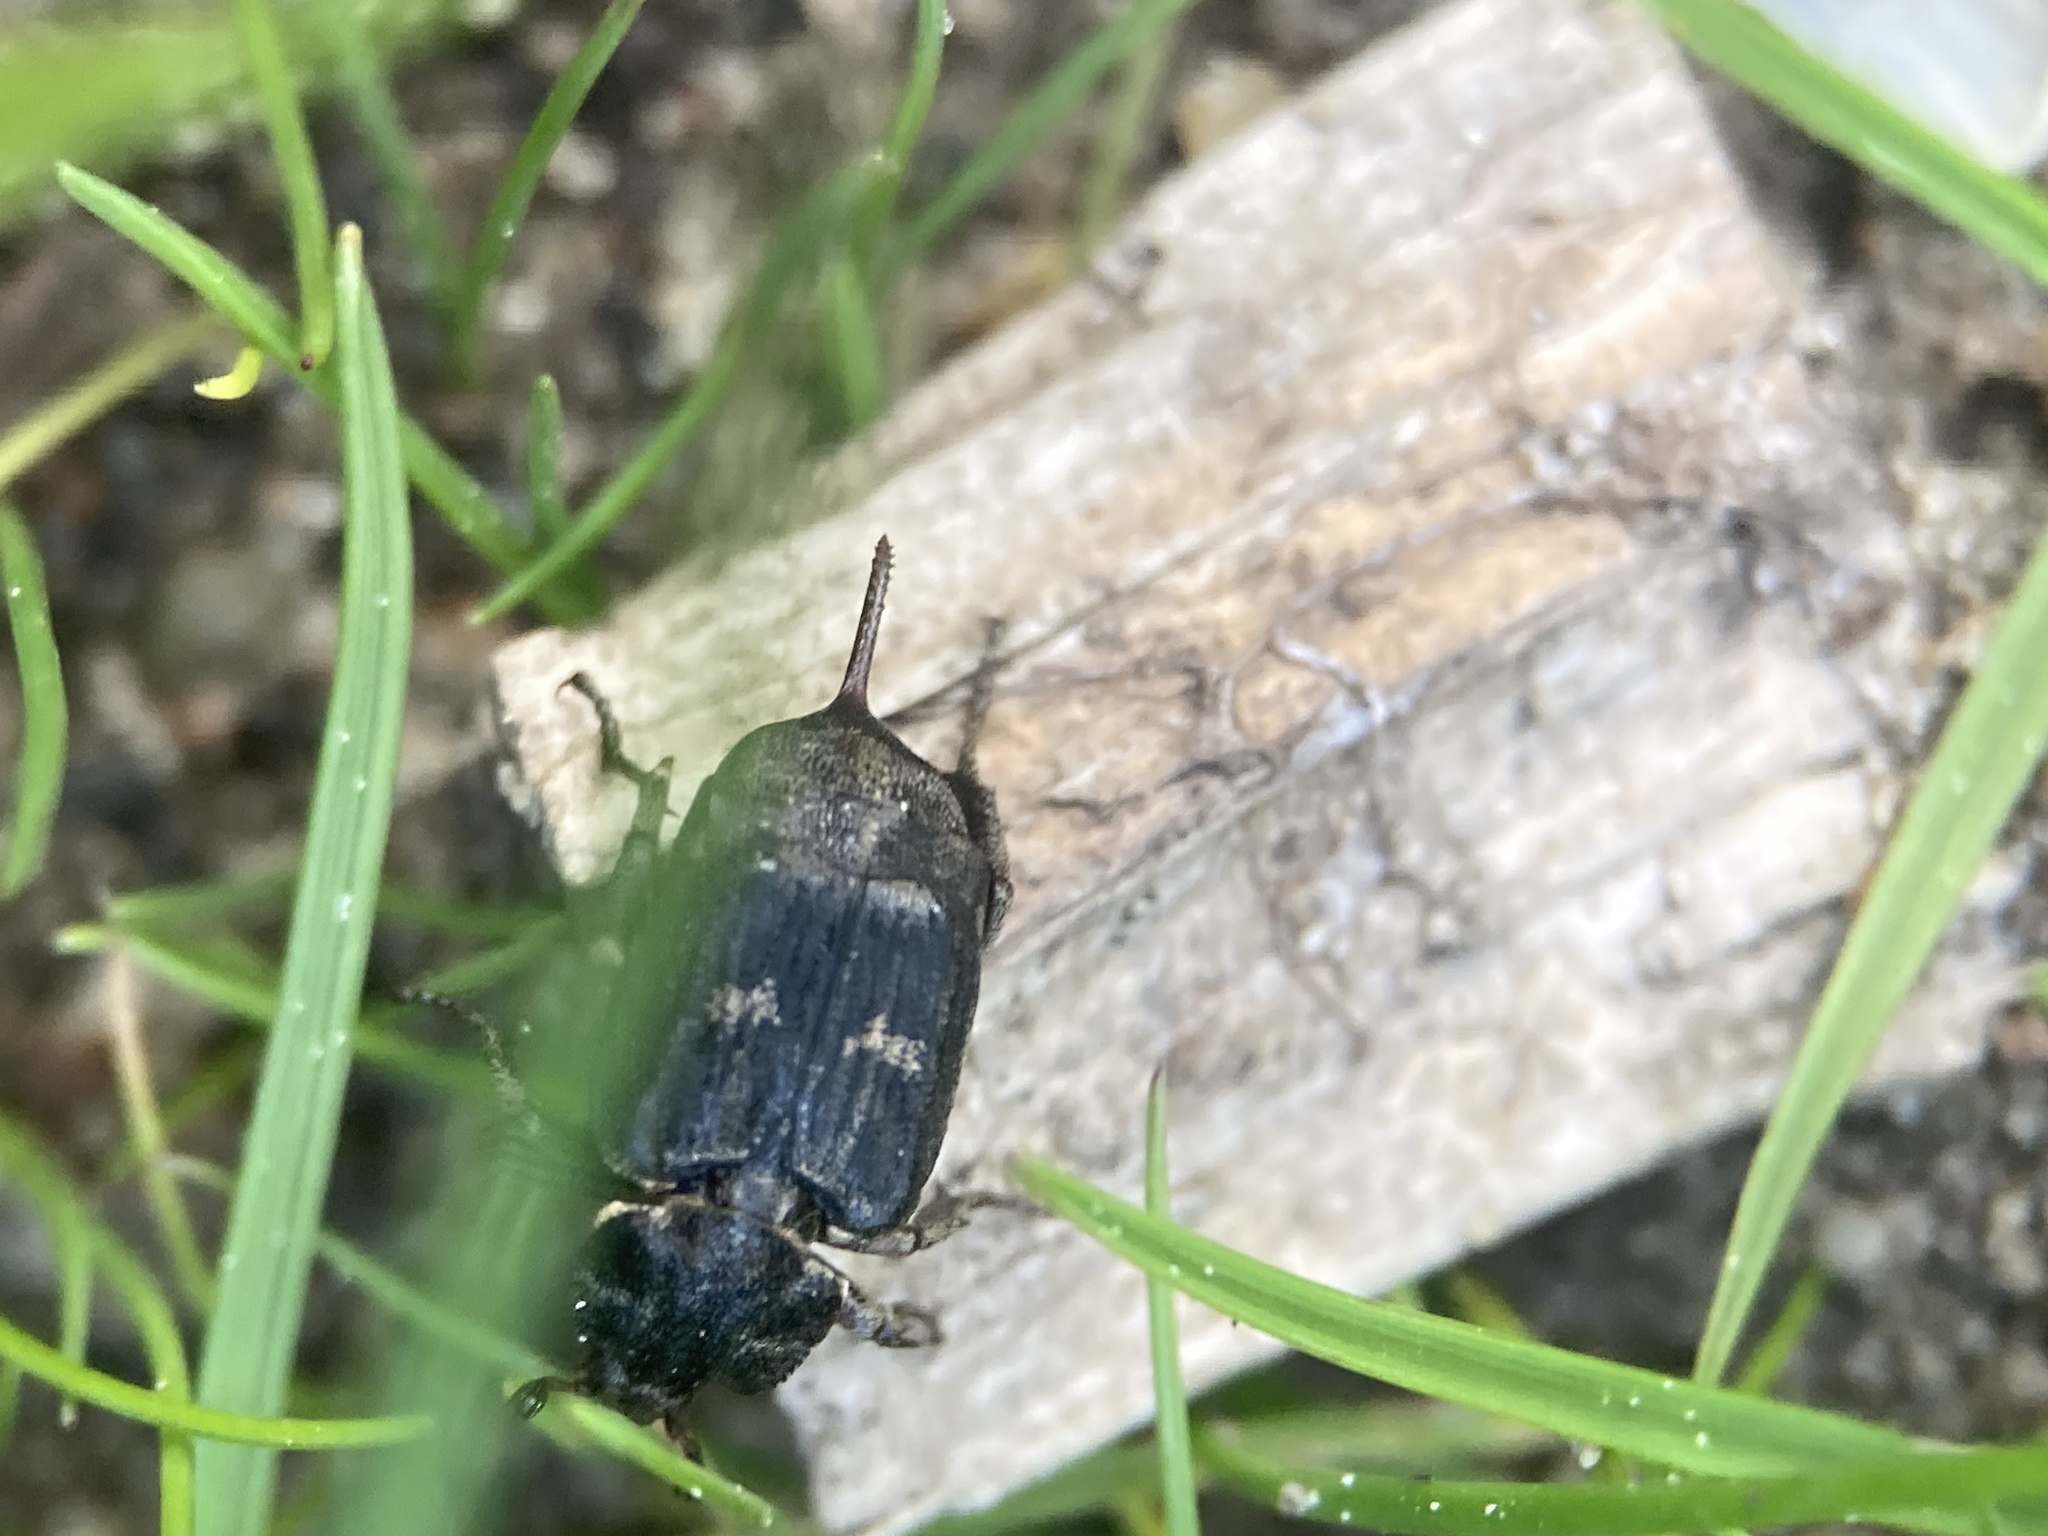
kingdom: Animalia
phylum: Arthropoda
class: Insecta
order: Coleoptera
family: Scarabaeidae
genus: Valgus
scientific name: Valgus hemipterus
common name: Bug flower chafer
